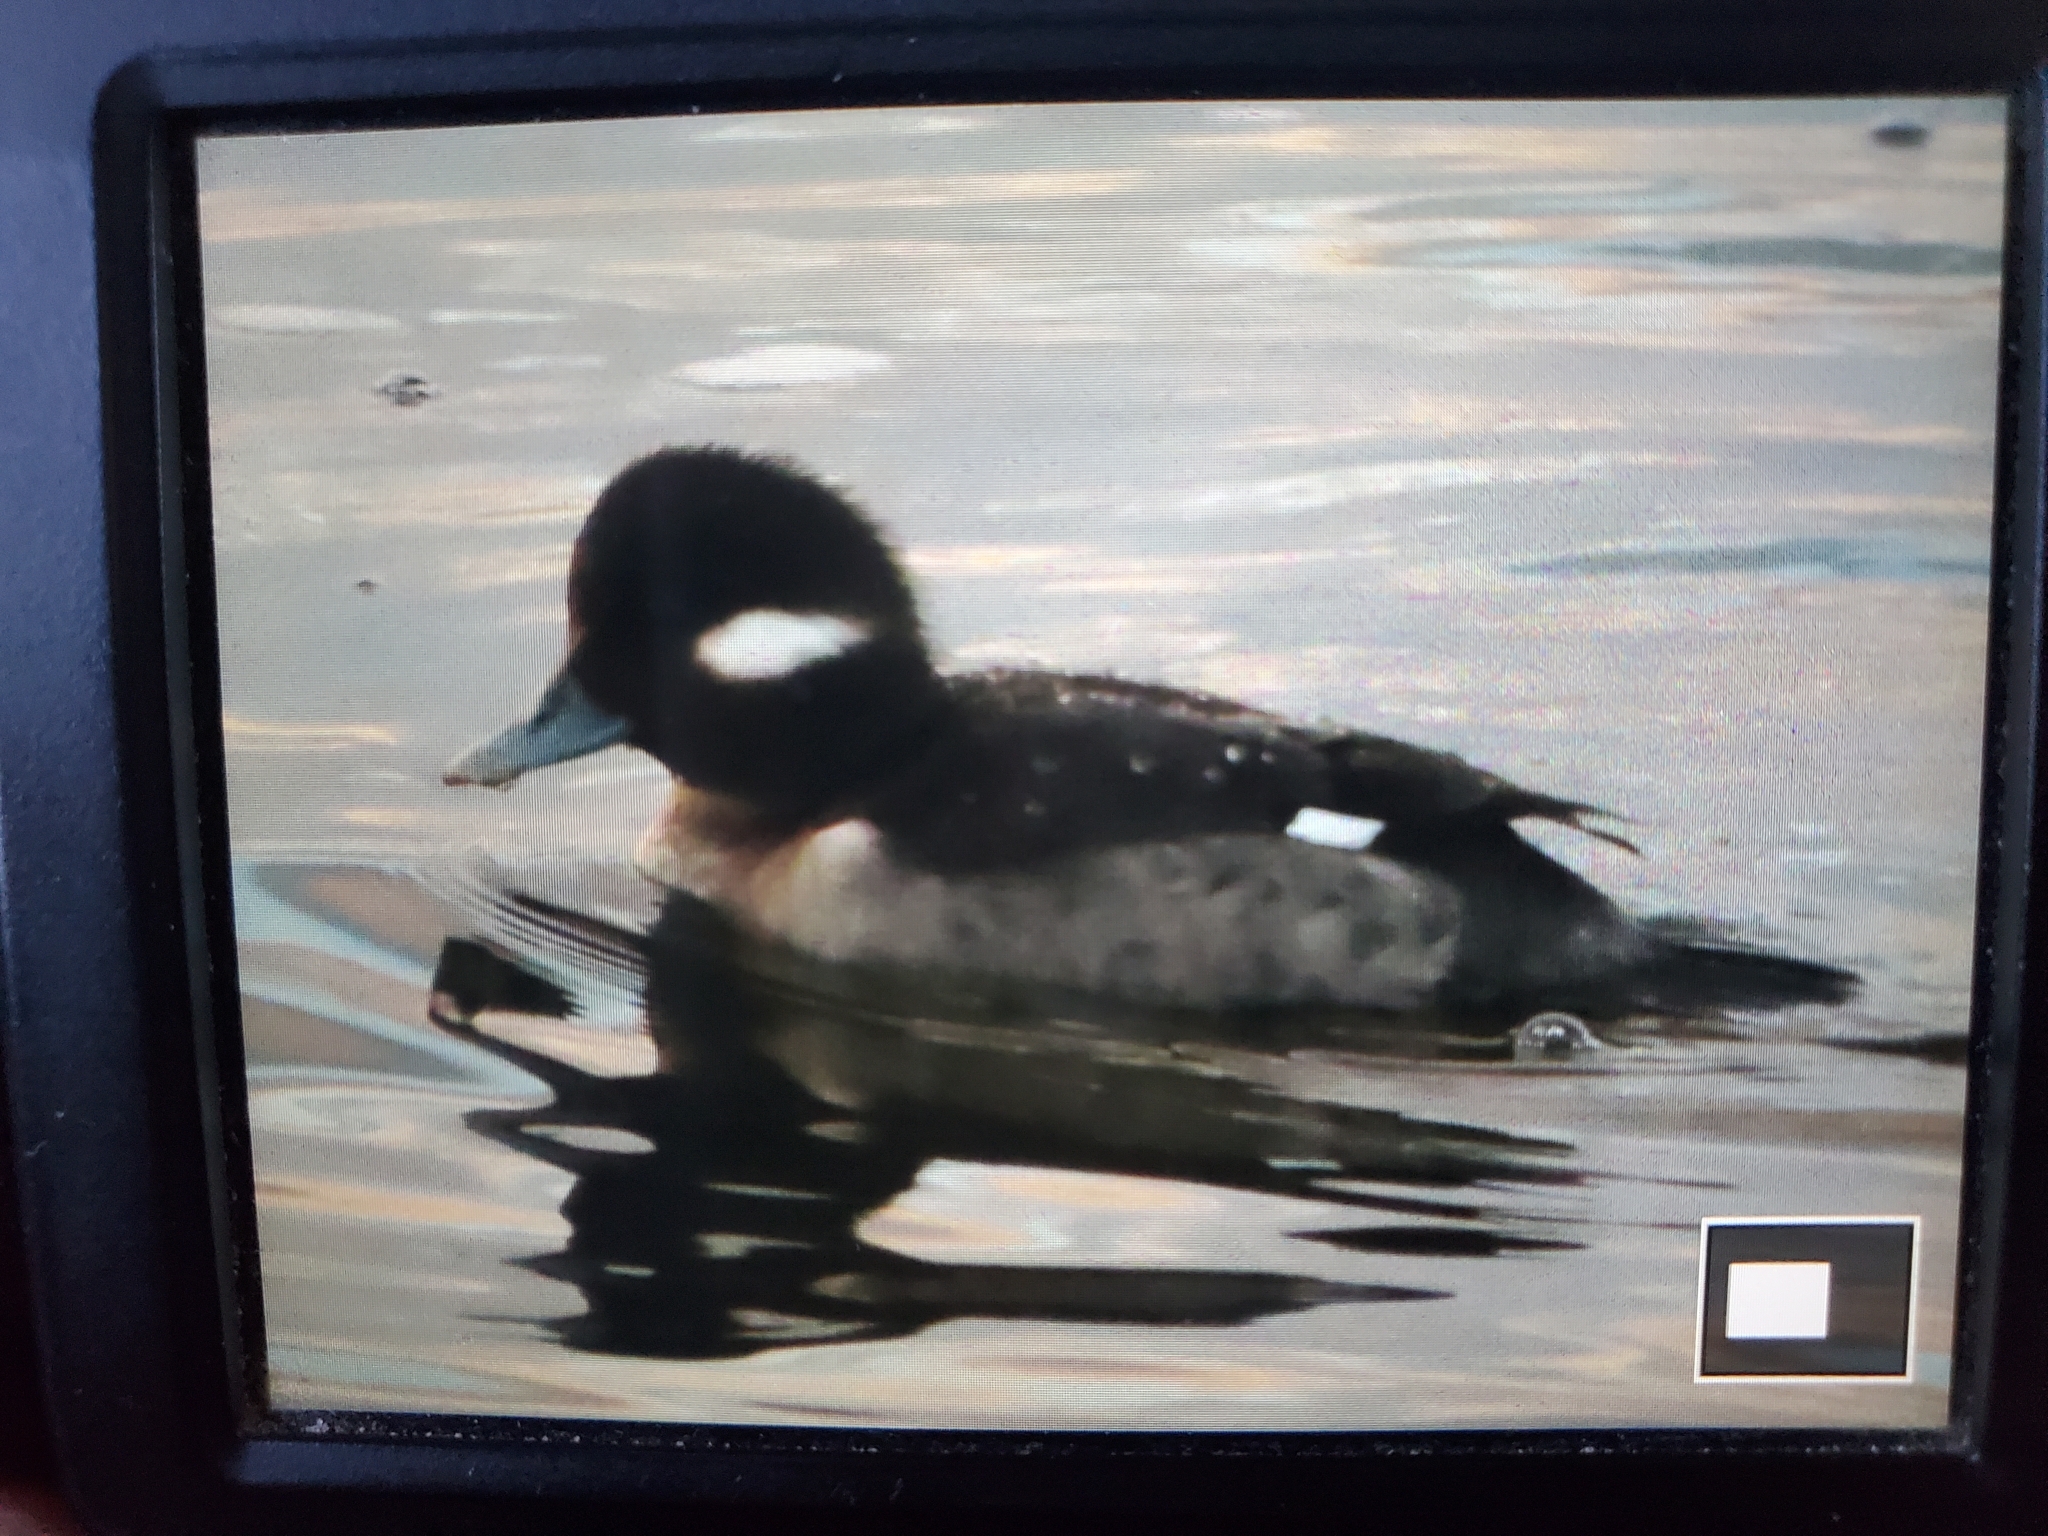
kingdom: Animalia
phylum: Chordata
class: Aves
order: Anseriformes
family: Anatidae
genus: Bucephala
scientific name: Bucephala albeola
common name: Bufflehead
